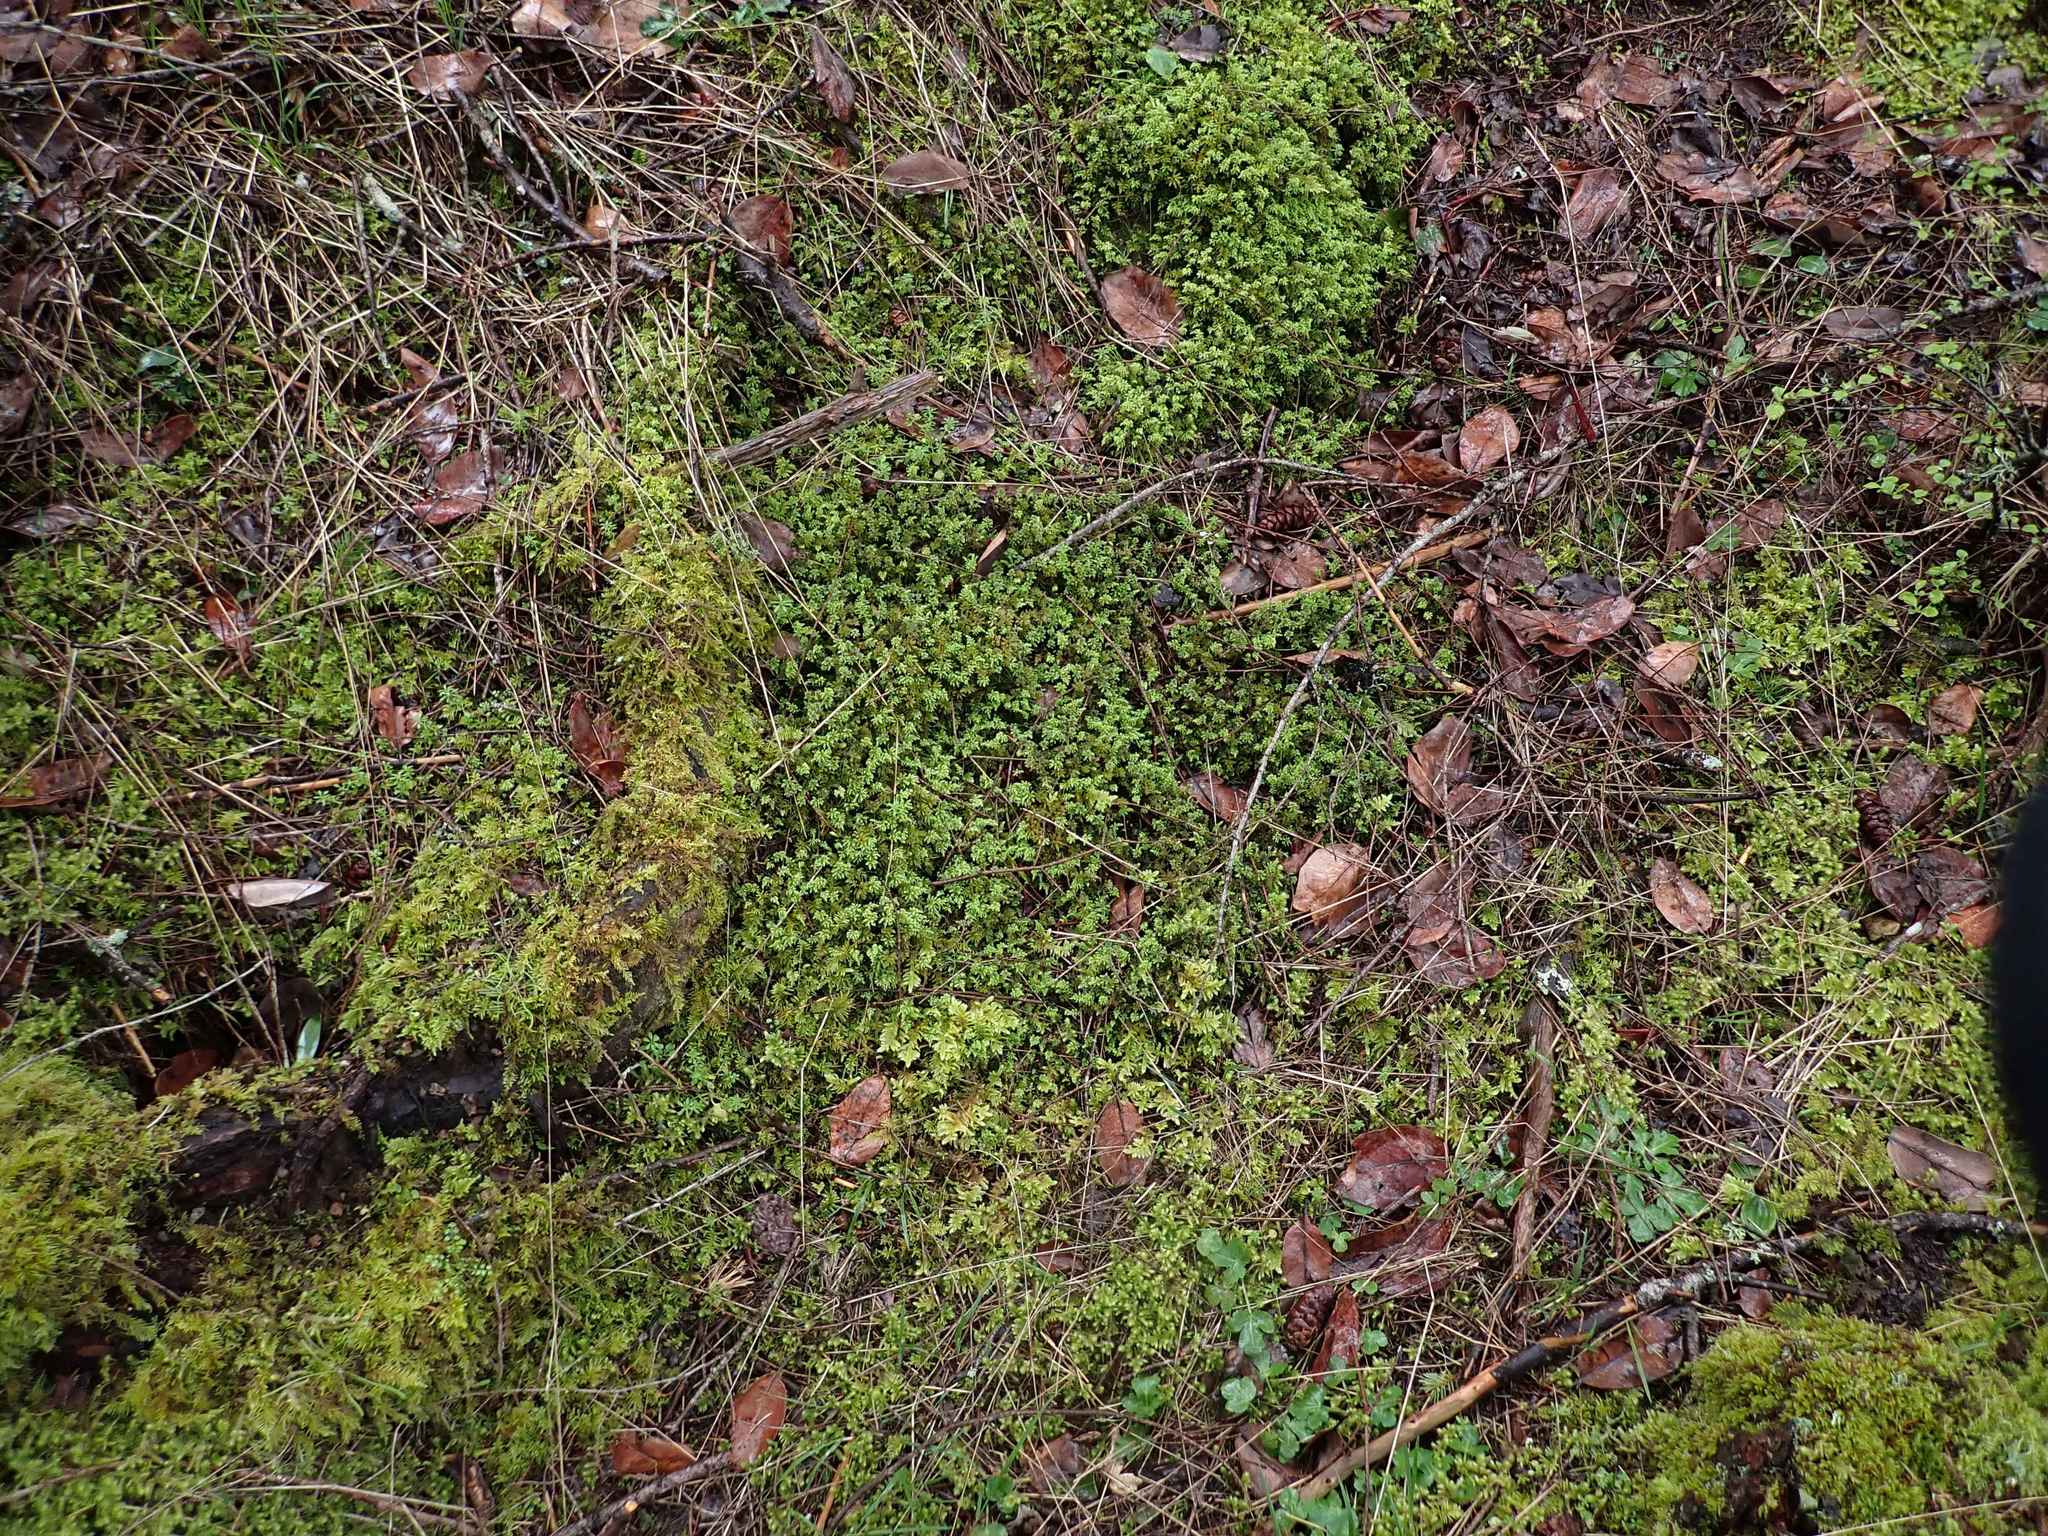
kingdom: Plantae
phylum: Bryophyta
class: Bryopsida
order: Bryales
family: Mniaceae
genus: Leucolepis
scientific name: Leucolepis acanthoneura
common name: Leucolepis umbrella moss
